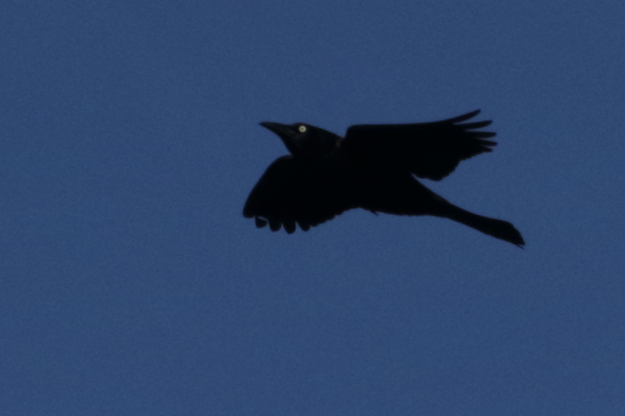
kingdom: Animalia
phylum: Chordata
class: Aves
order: Passeriformes
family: Icteridae
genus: Quiscalus
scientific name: Quiscalus quiscula
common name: Common grackle
